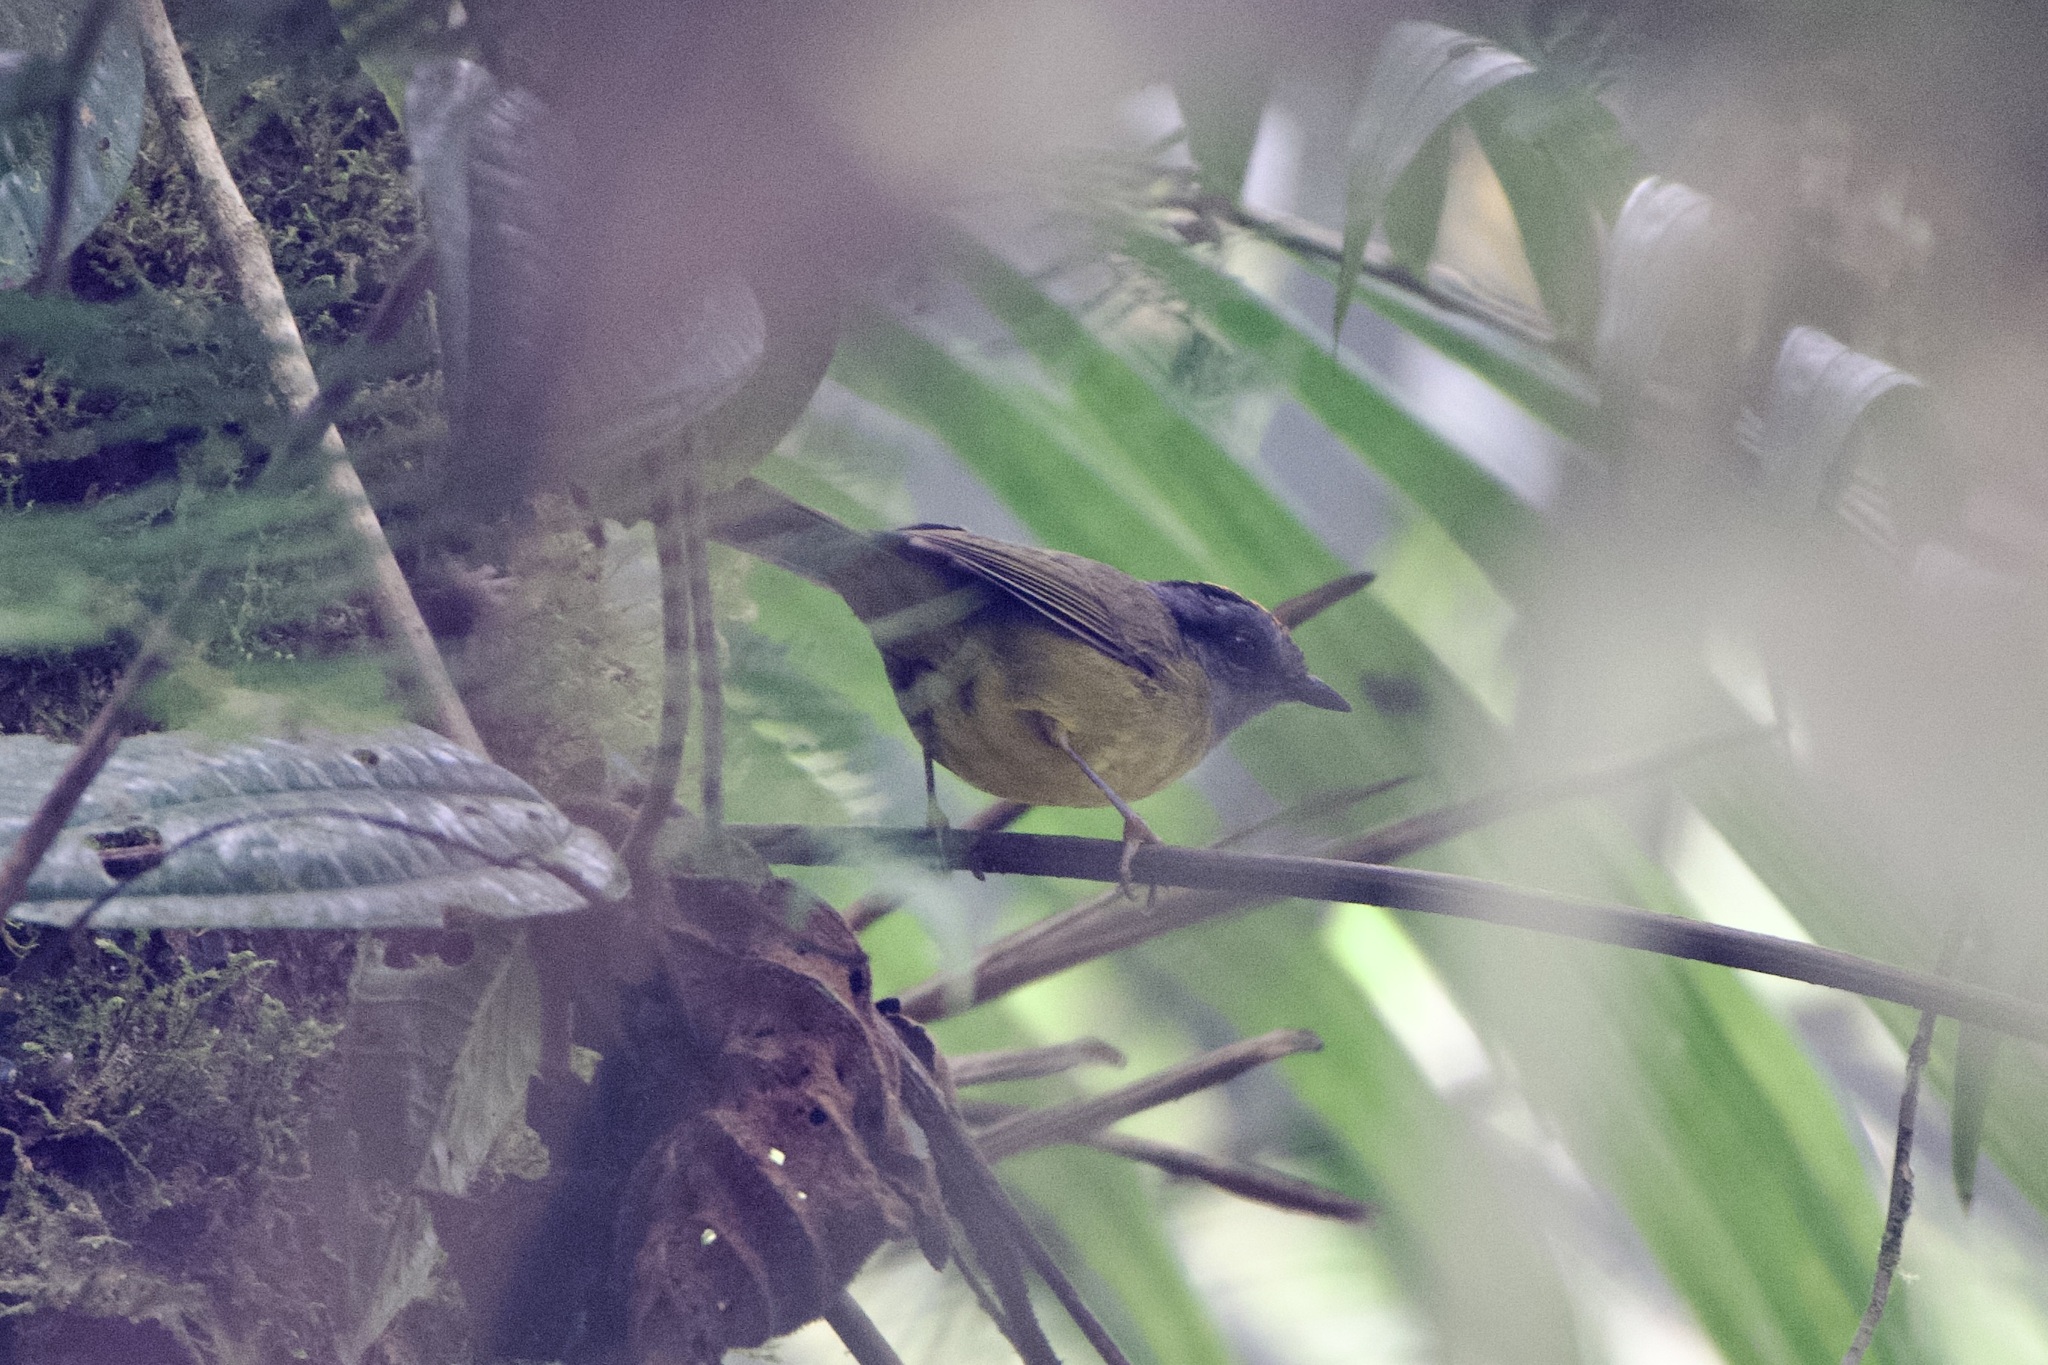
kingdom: Animalia
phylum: Chordata
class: Aves
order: Passeriformes
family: Parulidae
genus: Myiothlypis
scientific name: Myiothlypis coronata
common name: Russet-crowned warbler
